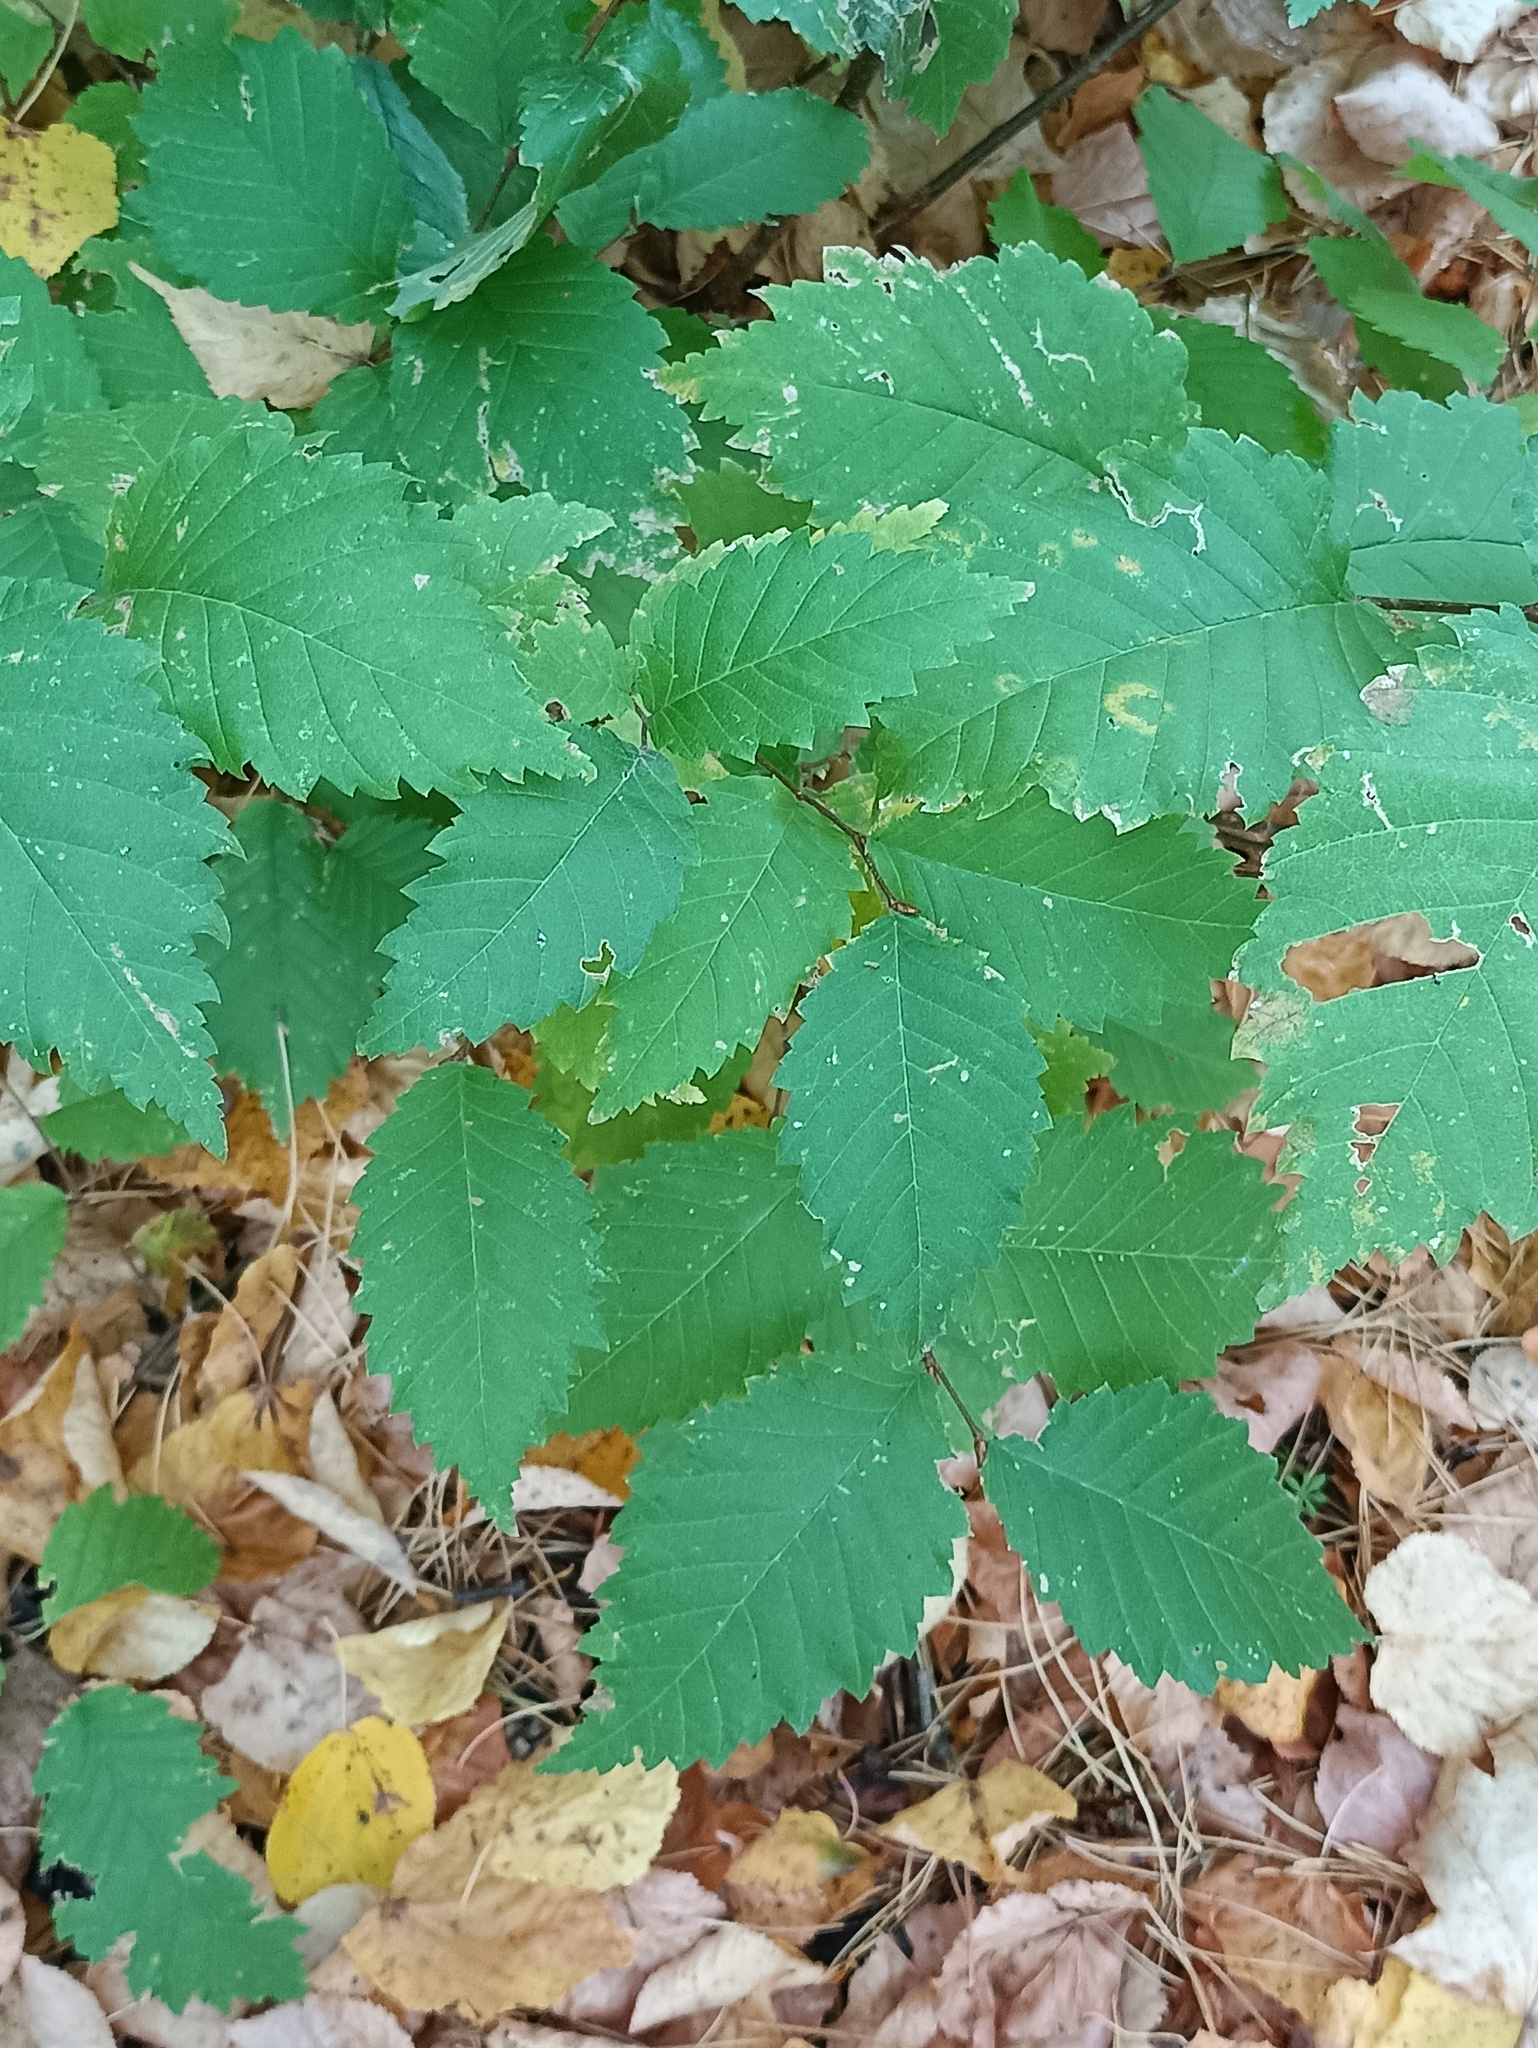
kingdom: Plantae
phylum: Tracheophyta
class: Magnoliopsida
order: Rosales
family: Ulmaceae
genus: Ulmus
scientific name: Ulmus laevis
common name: European white-elm
